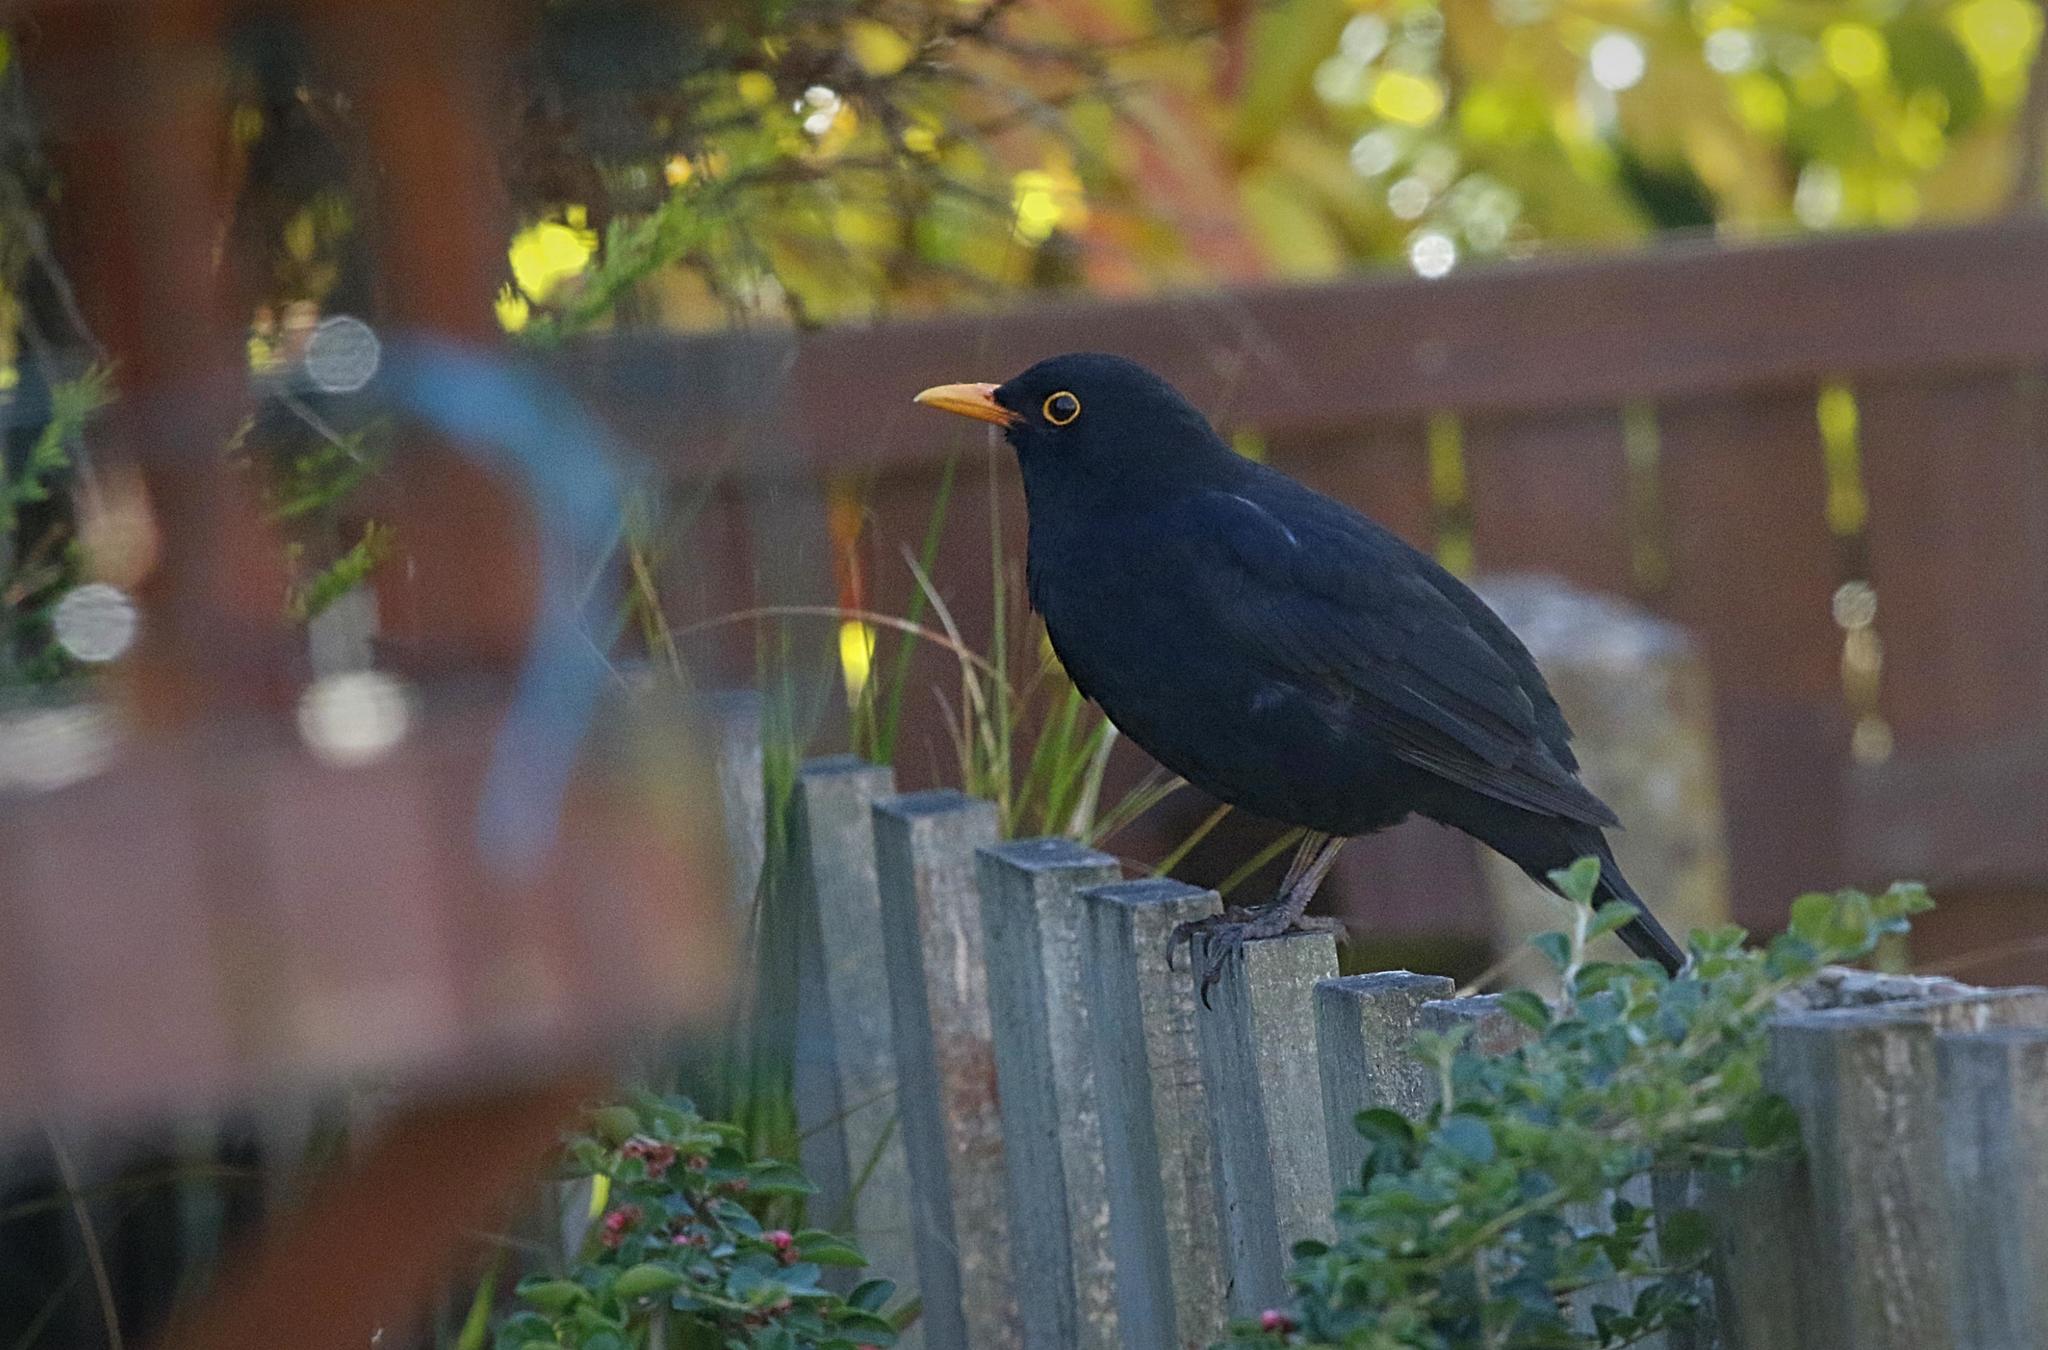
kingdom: Animalia
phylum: Chordata
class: Aves
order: Passeriformes
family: Turdidae
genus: Turdus
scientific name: Turdus merula
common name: Common blackbird
